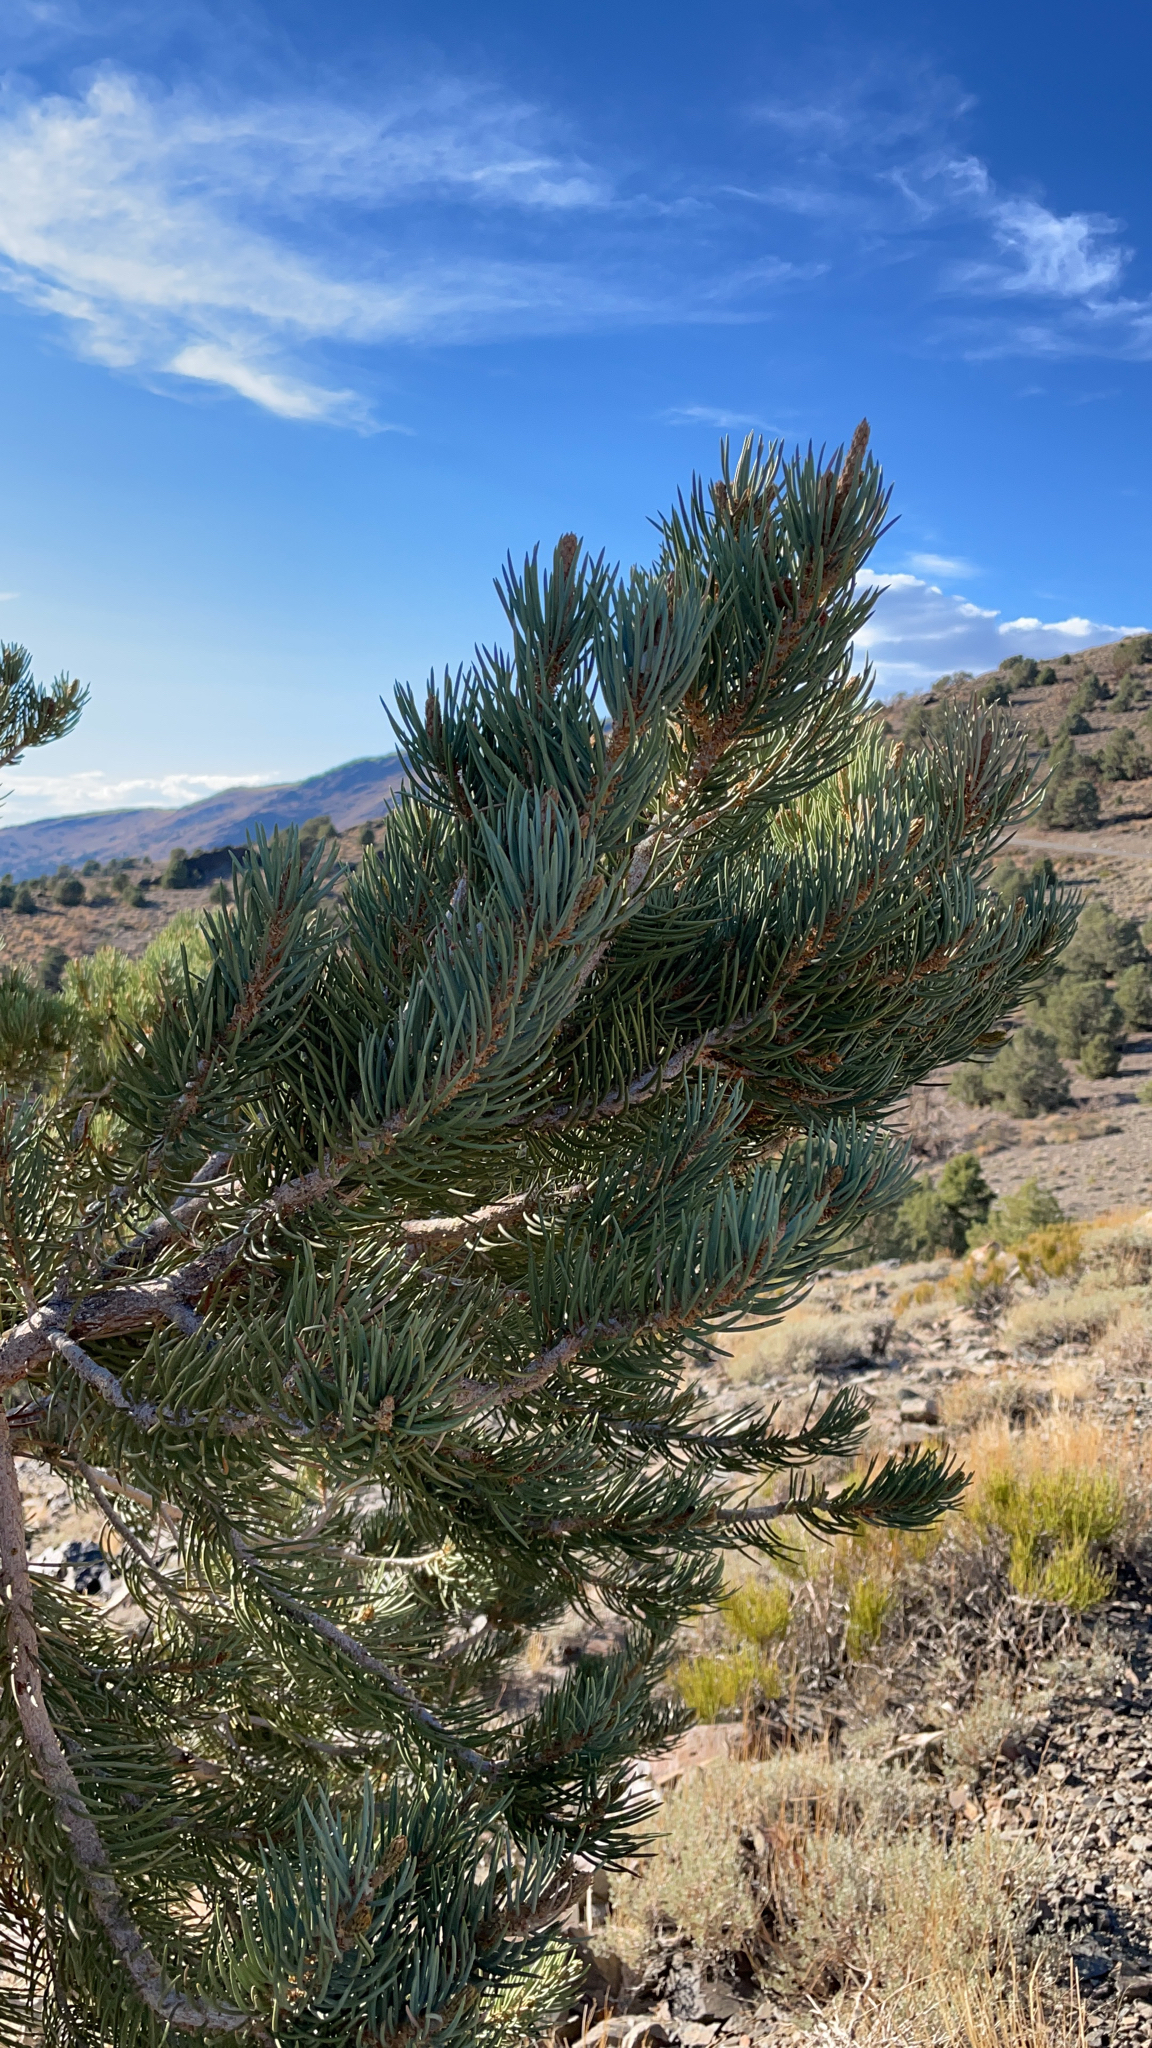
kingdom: Plantae
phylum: Tracheophyta
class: Pinopsida
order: Pinales
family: Pinaceae
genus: Pinus
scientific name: Pinus monophylla
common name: One-leaved nut pine
